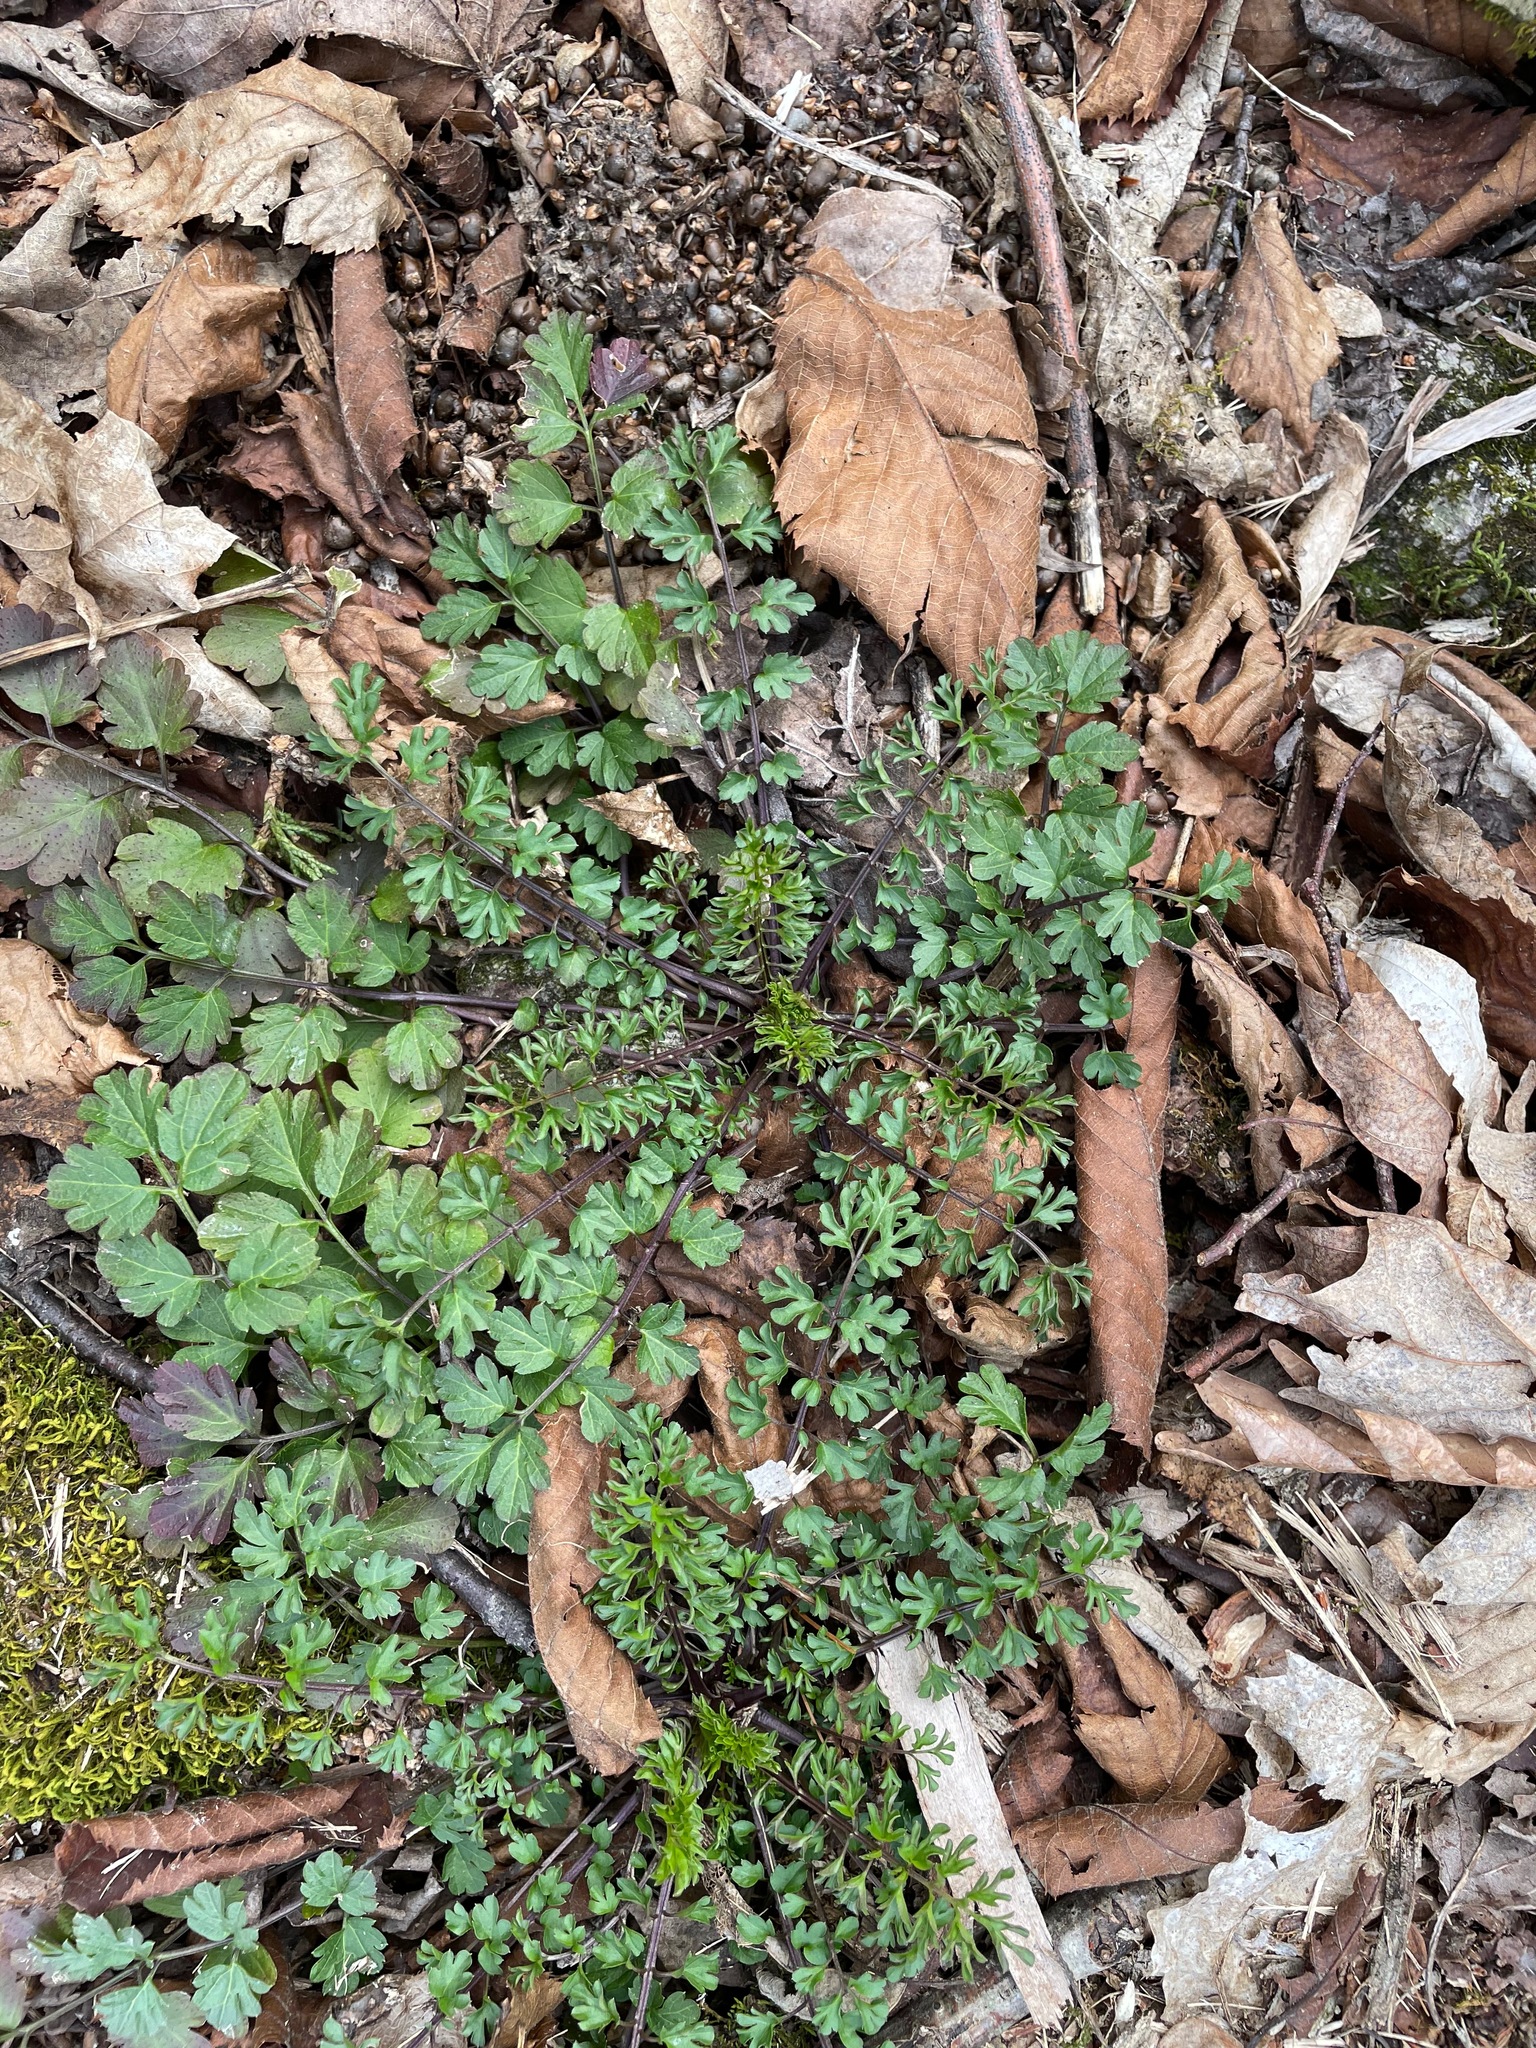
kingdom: Plantae
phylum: Tracheophyta
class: Magnoliopsida
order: Brassicales
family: Brassicaceae
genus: Cardamine
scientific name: Cardamine impatiens
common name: Narrow-leaved bitter-cress
